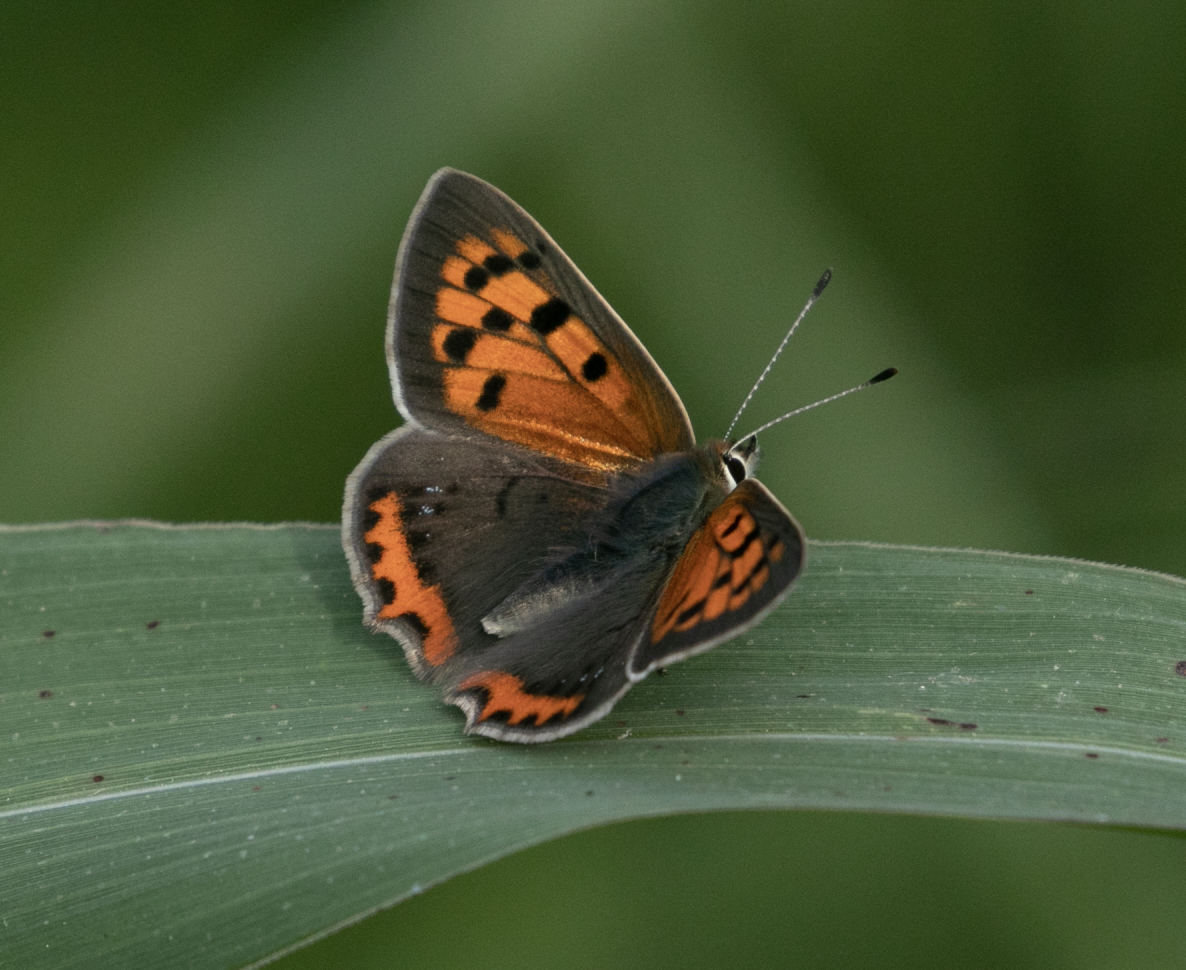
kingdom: Animalia
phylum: Arthropoda
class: Insecta
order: Lepidoptera
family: Lycaenidae
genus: Lycaena
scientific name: Lycaena phlaeas
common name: Small copper
